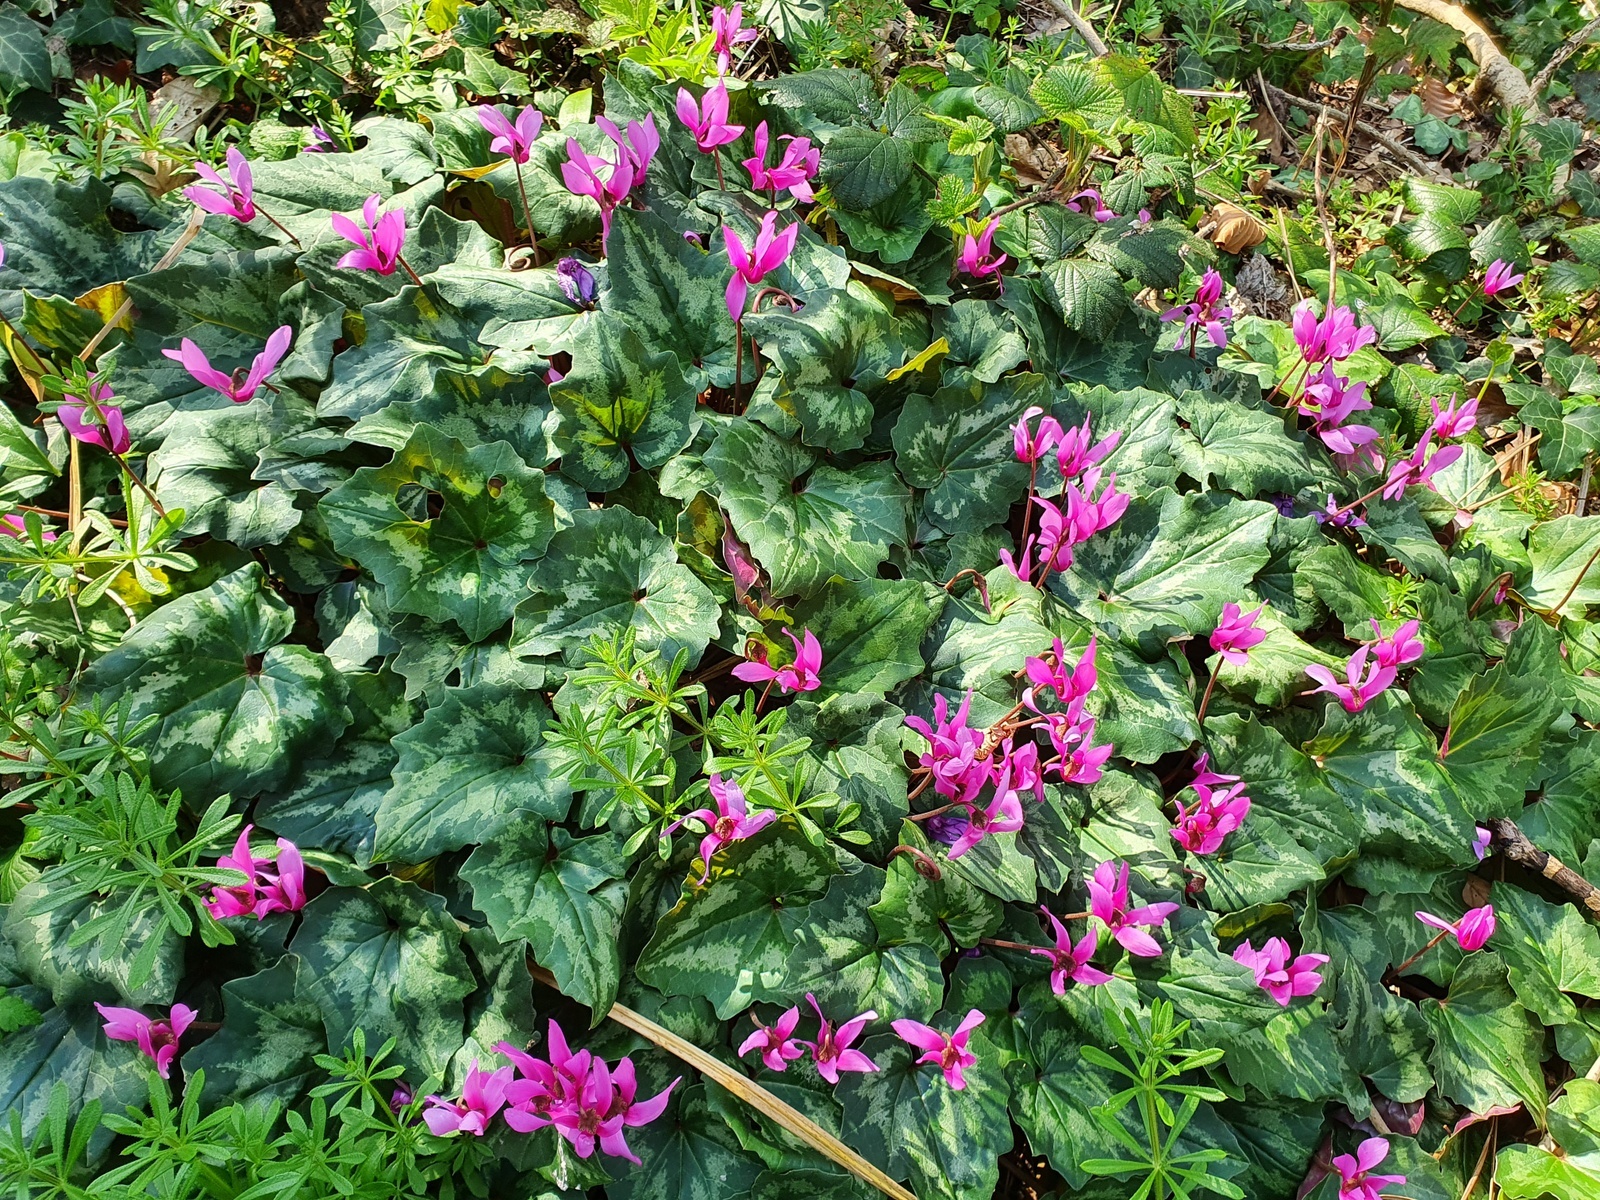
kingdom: Plantae
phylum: Tracheophyta
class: Magnoliopsida
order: Ericales
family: Primulaceae
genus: Cyclamen
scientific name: Cyclamen repandum
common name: Spring sowbread
